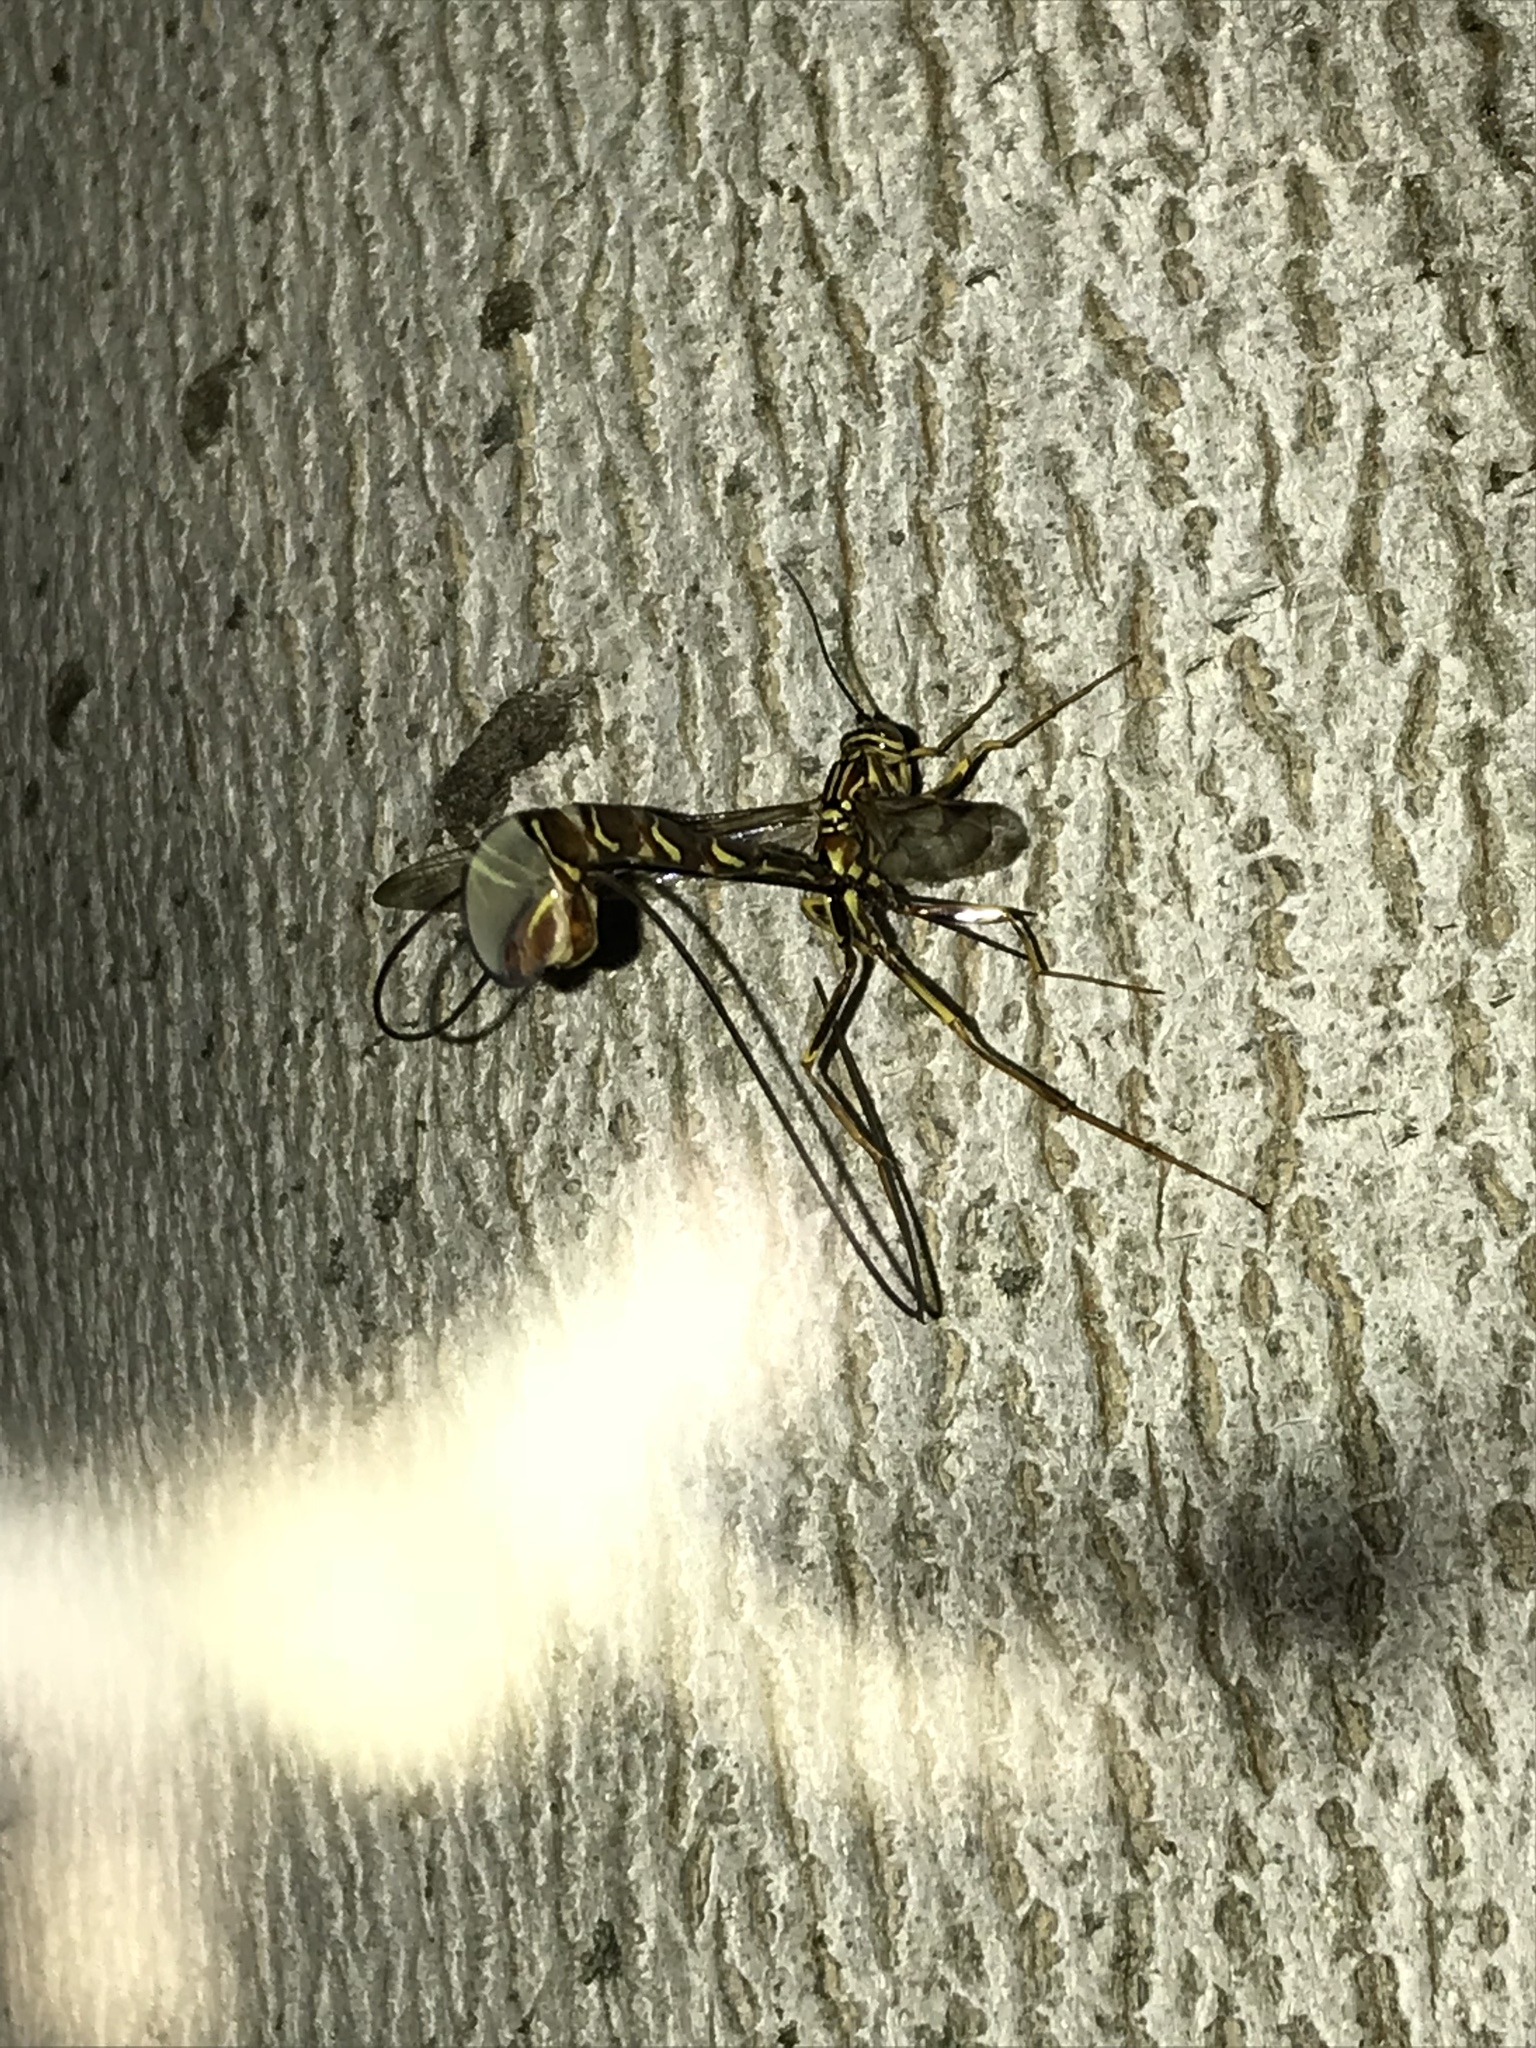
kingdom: Animalia
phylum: Arthropoda
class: Insecta
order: Hymenoptera
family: Ichneumonidae
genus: Megarhyssa
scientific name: Megarhyssa macrura
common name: Long-tailed giant ichneumonid wasp
